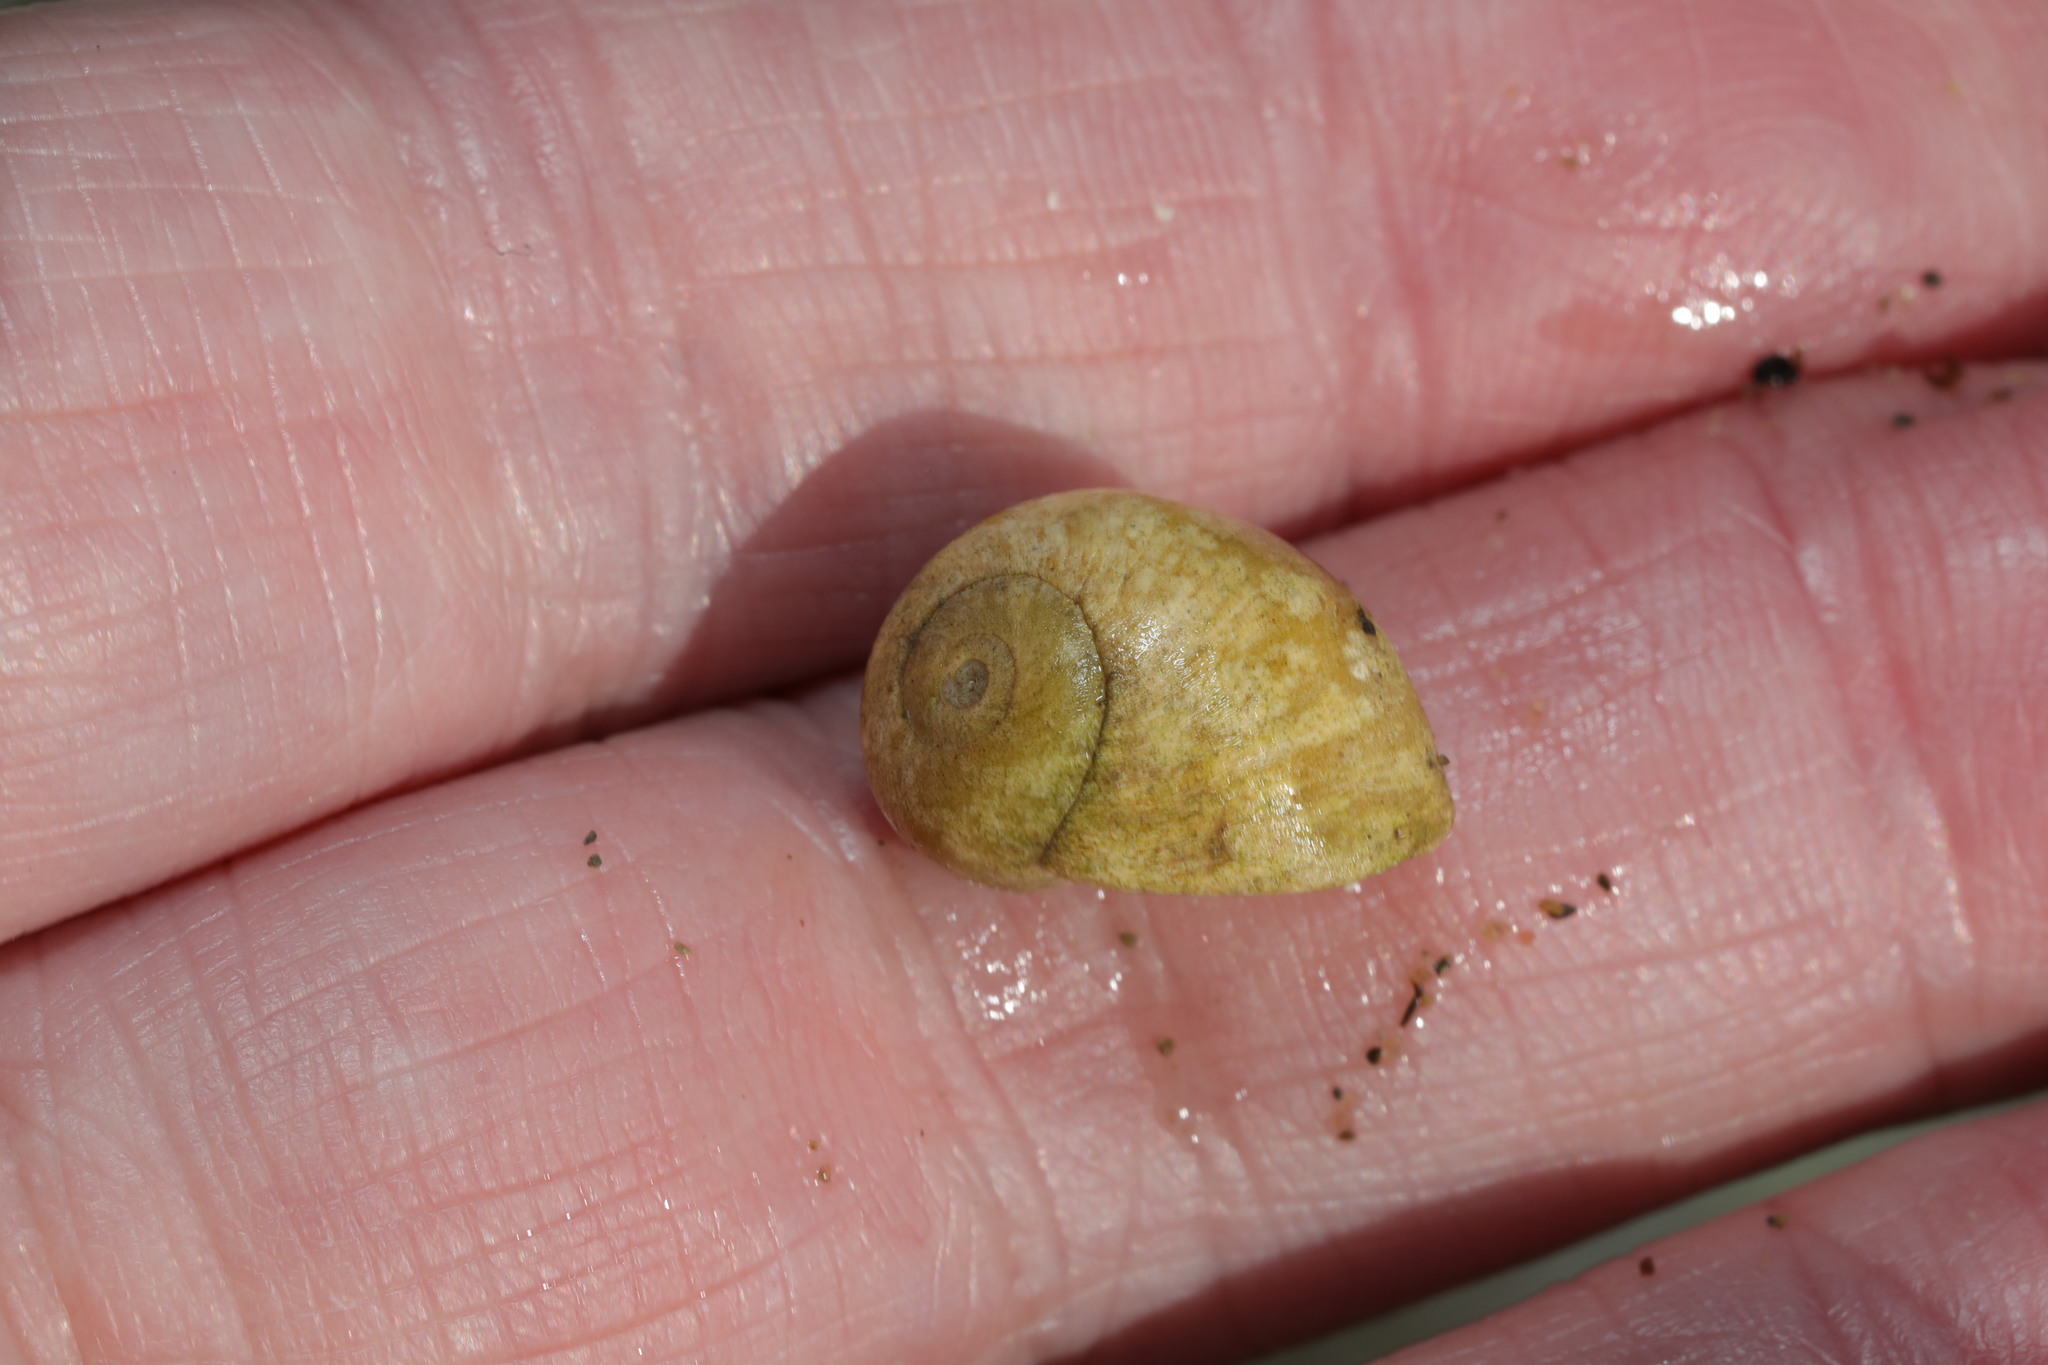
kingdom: Animalia
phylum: Mollusca
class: Gastropoda
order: Littorinimorpha
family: Littorinidae
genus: Littorina
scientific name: Littorina obtusata
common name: Flat periwinkle
